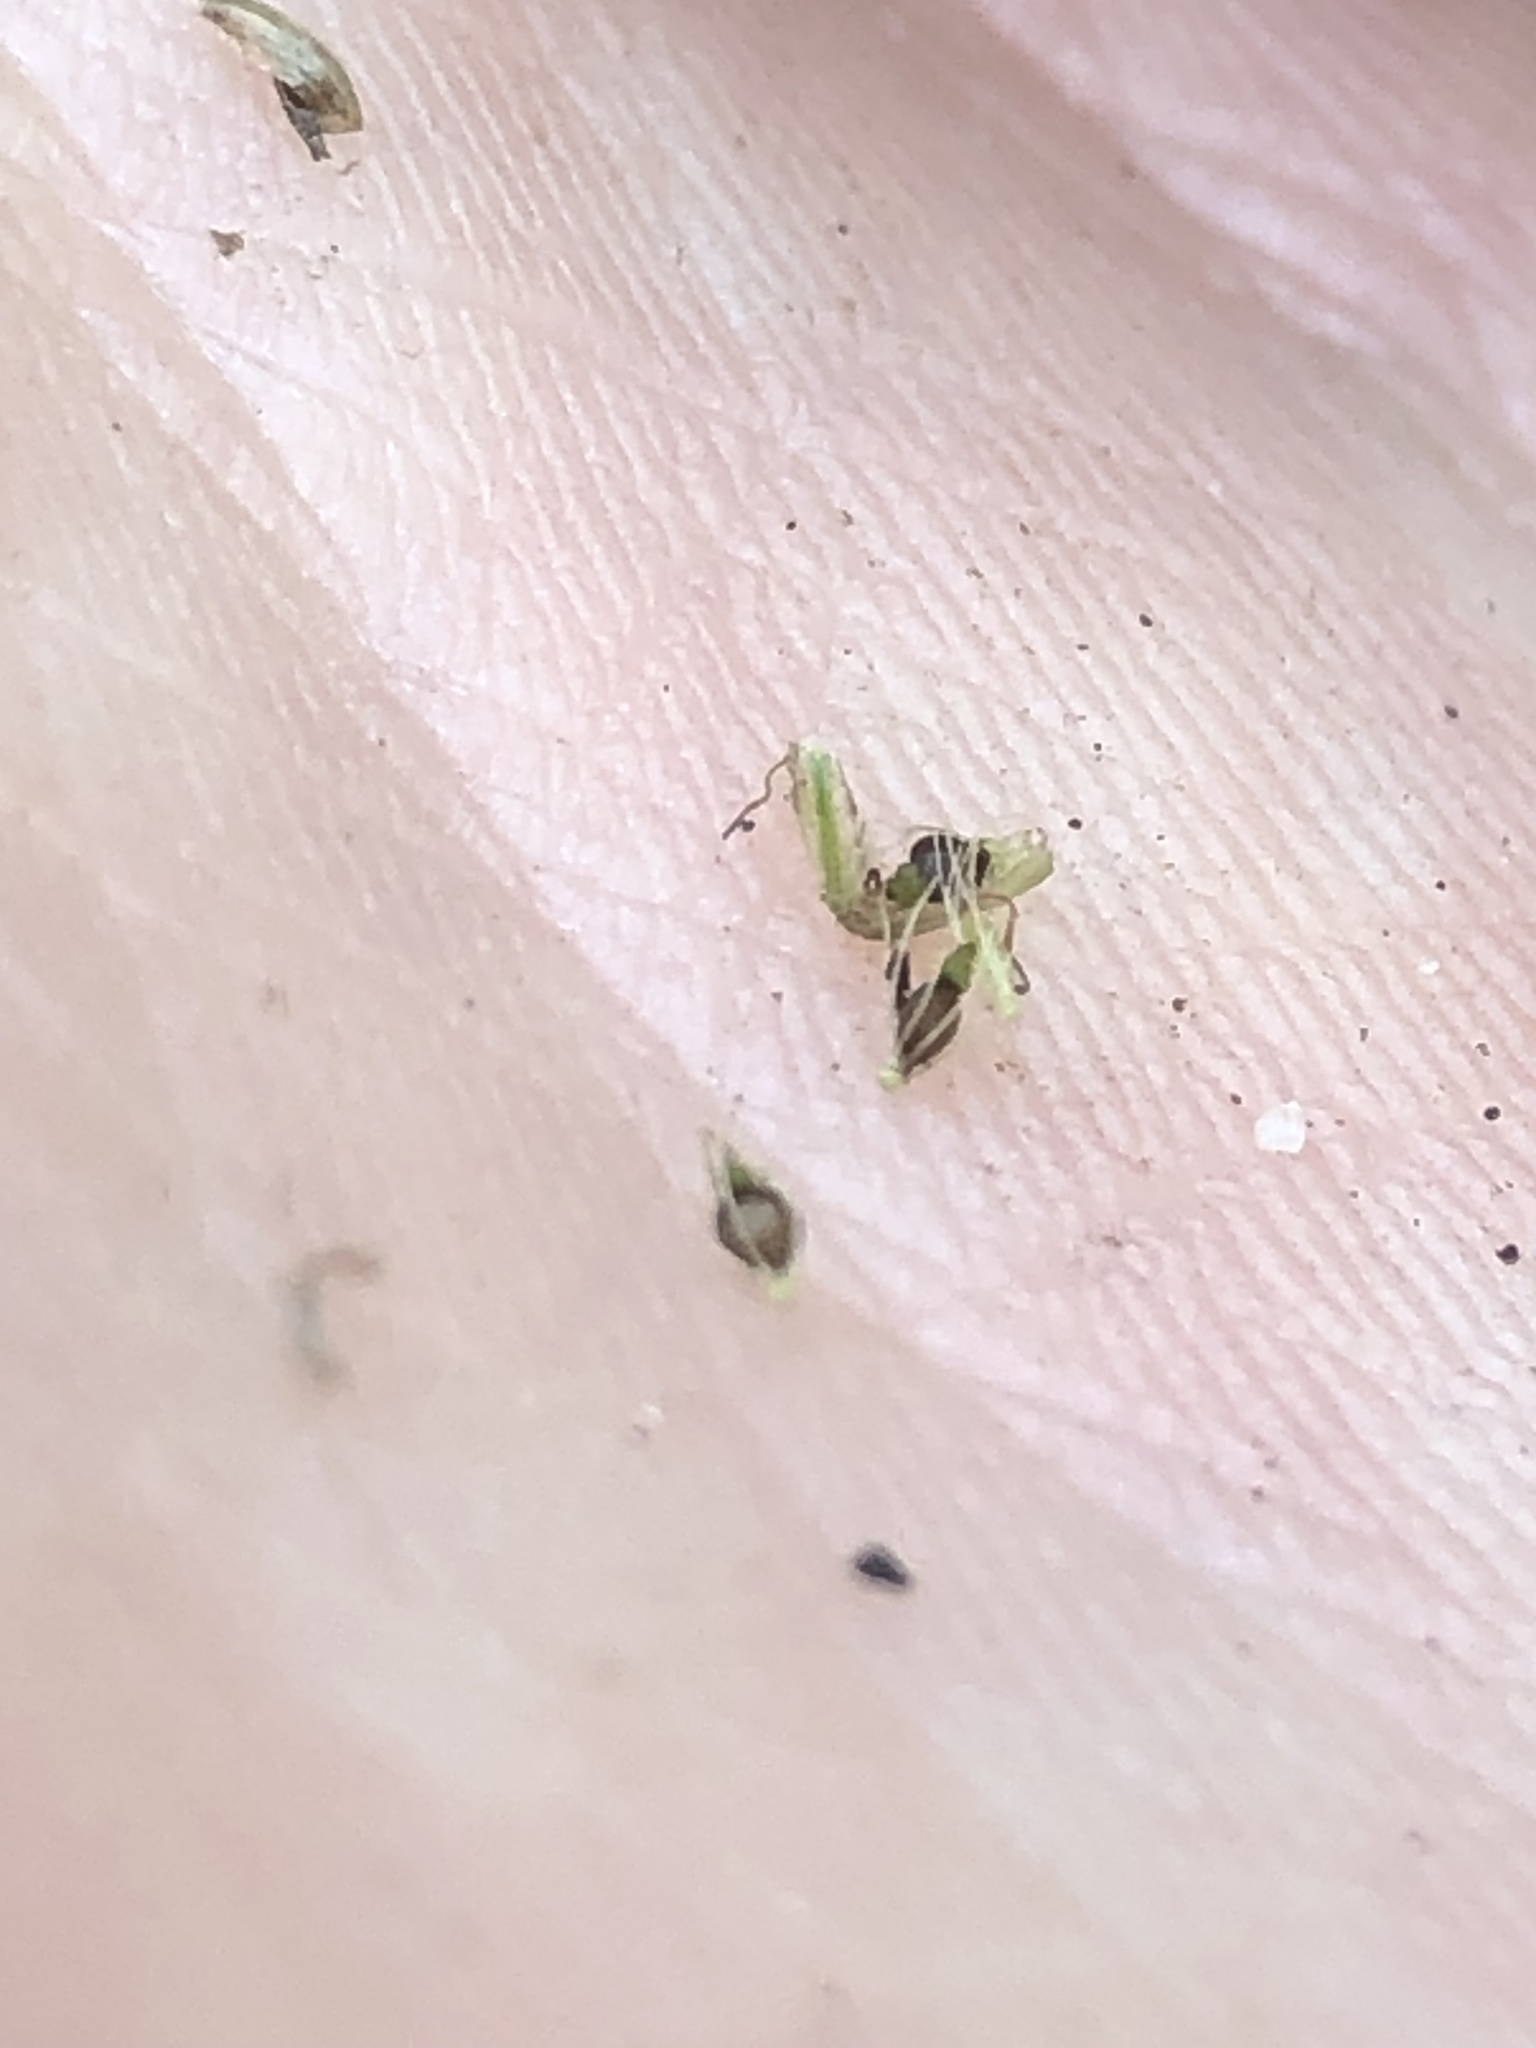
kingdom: Plantae
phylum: Tracheophyta
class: Liliopsida
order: Poales
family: Cyperaceae
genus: Eleocharis
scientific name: Eleocharis flavescens
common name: Yellow spikerush
